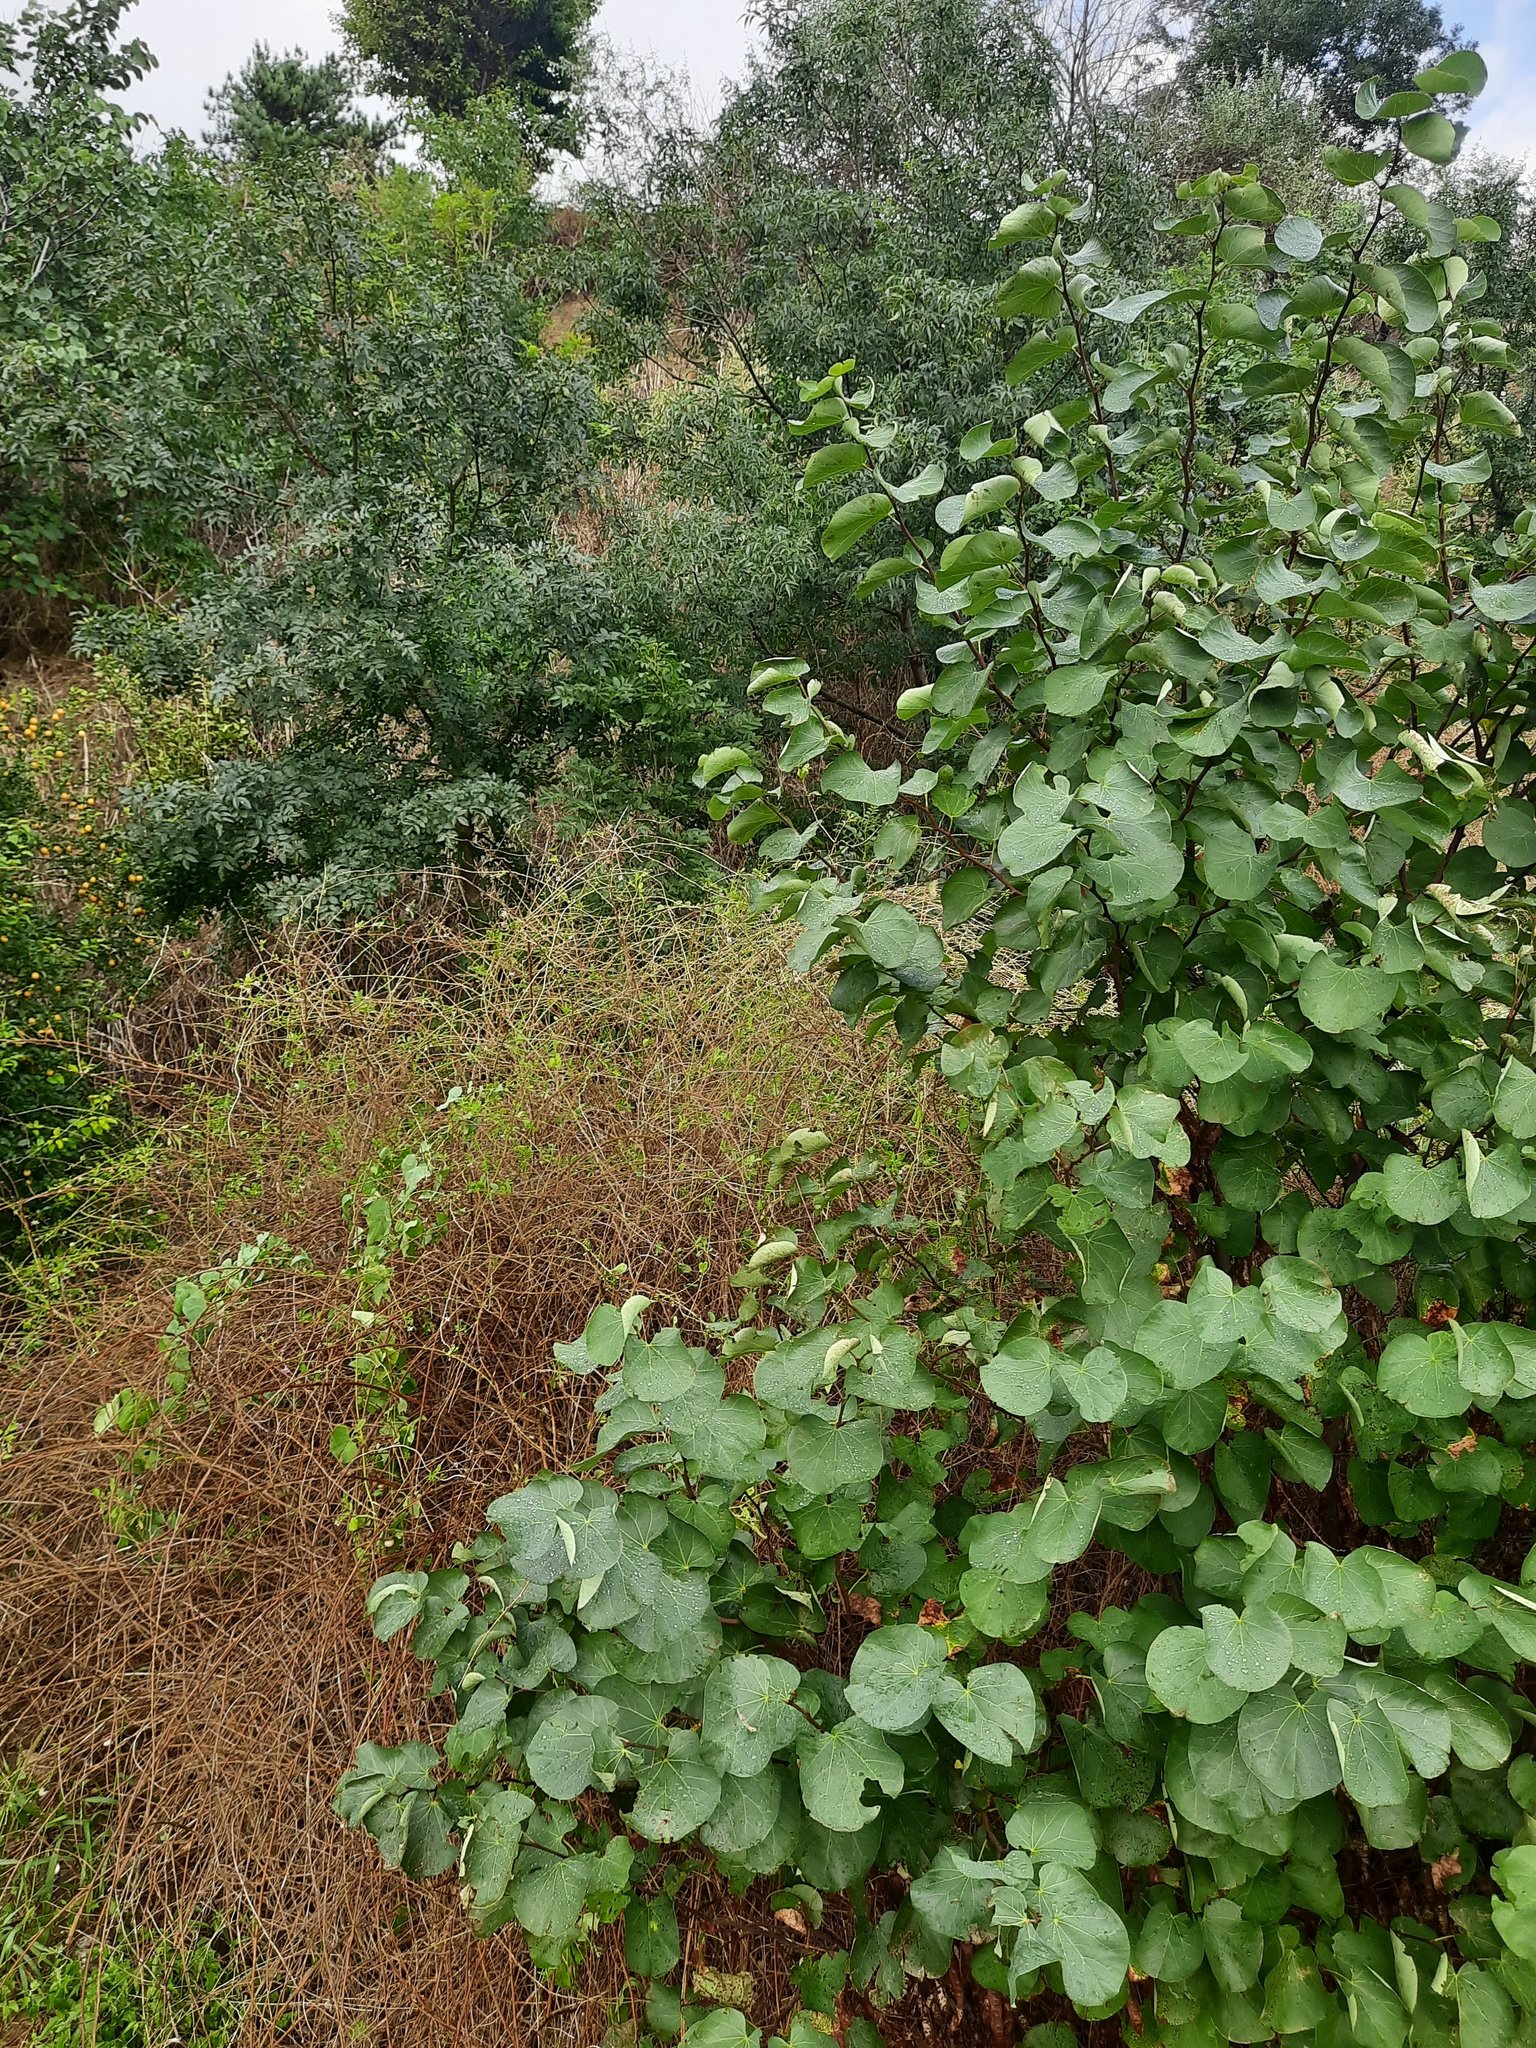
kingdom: Plantae
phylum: Tracheophyta
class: Magnoliopsida
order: Fabales
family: Fabaceae
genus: Cercis
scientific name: Cercis siliquastrum
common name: Judas tree
